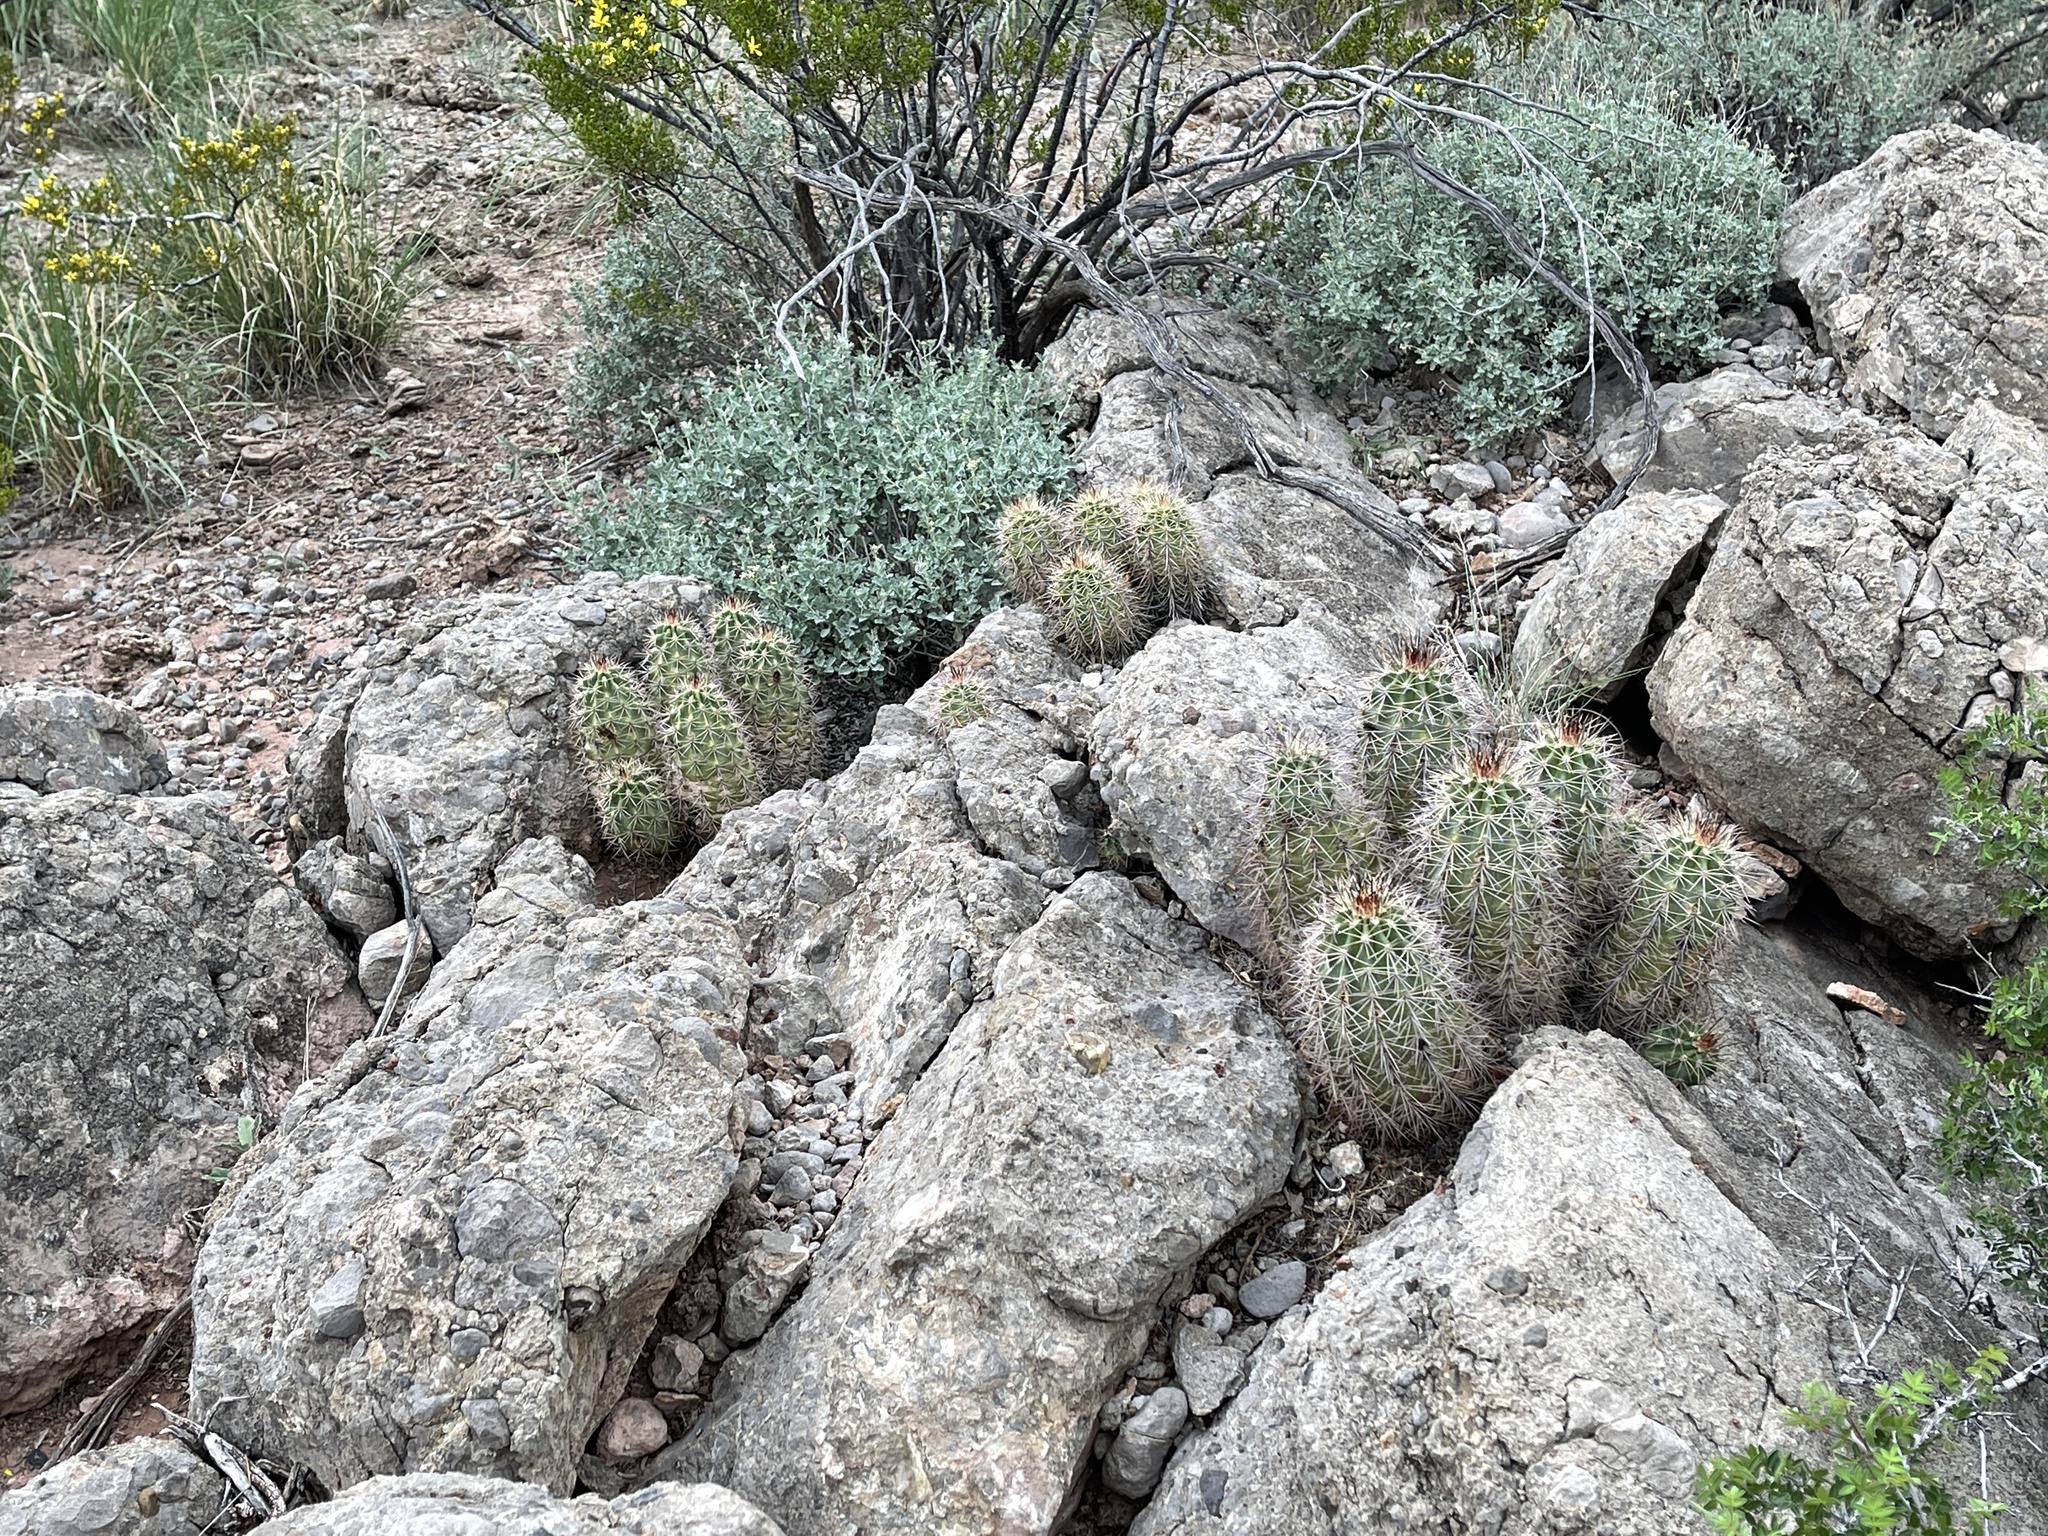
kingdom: Plantae
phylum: Tracheophyta
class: Magnoliopsida
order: Caryophyllales
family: Cactaceae
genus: Echinocereus
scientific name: Echinocereus coccineus
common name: Scarlet hedgehog cactus
